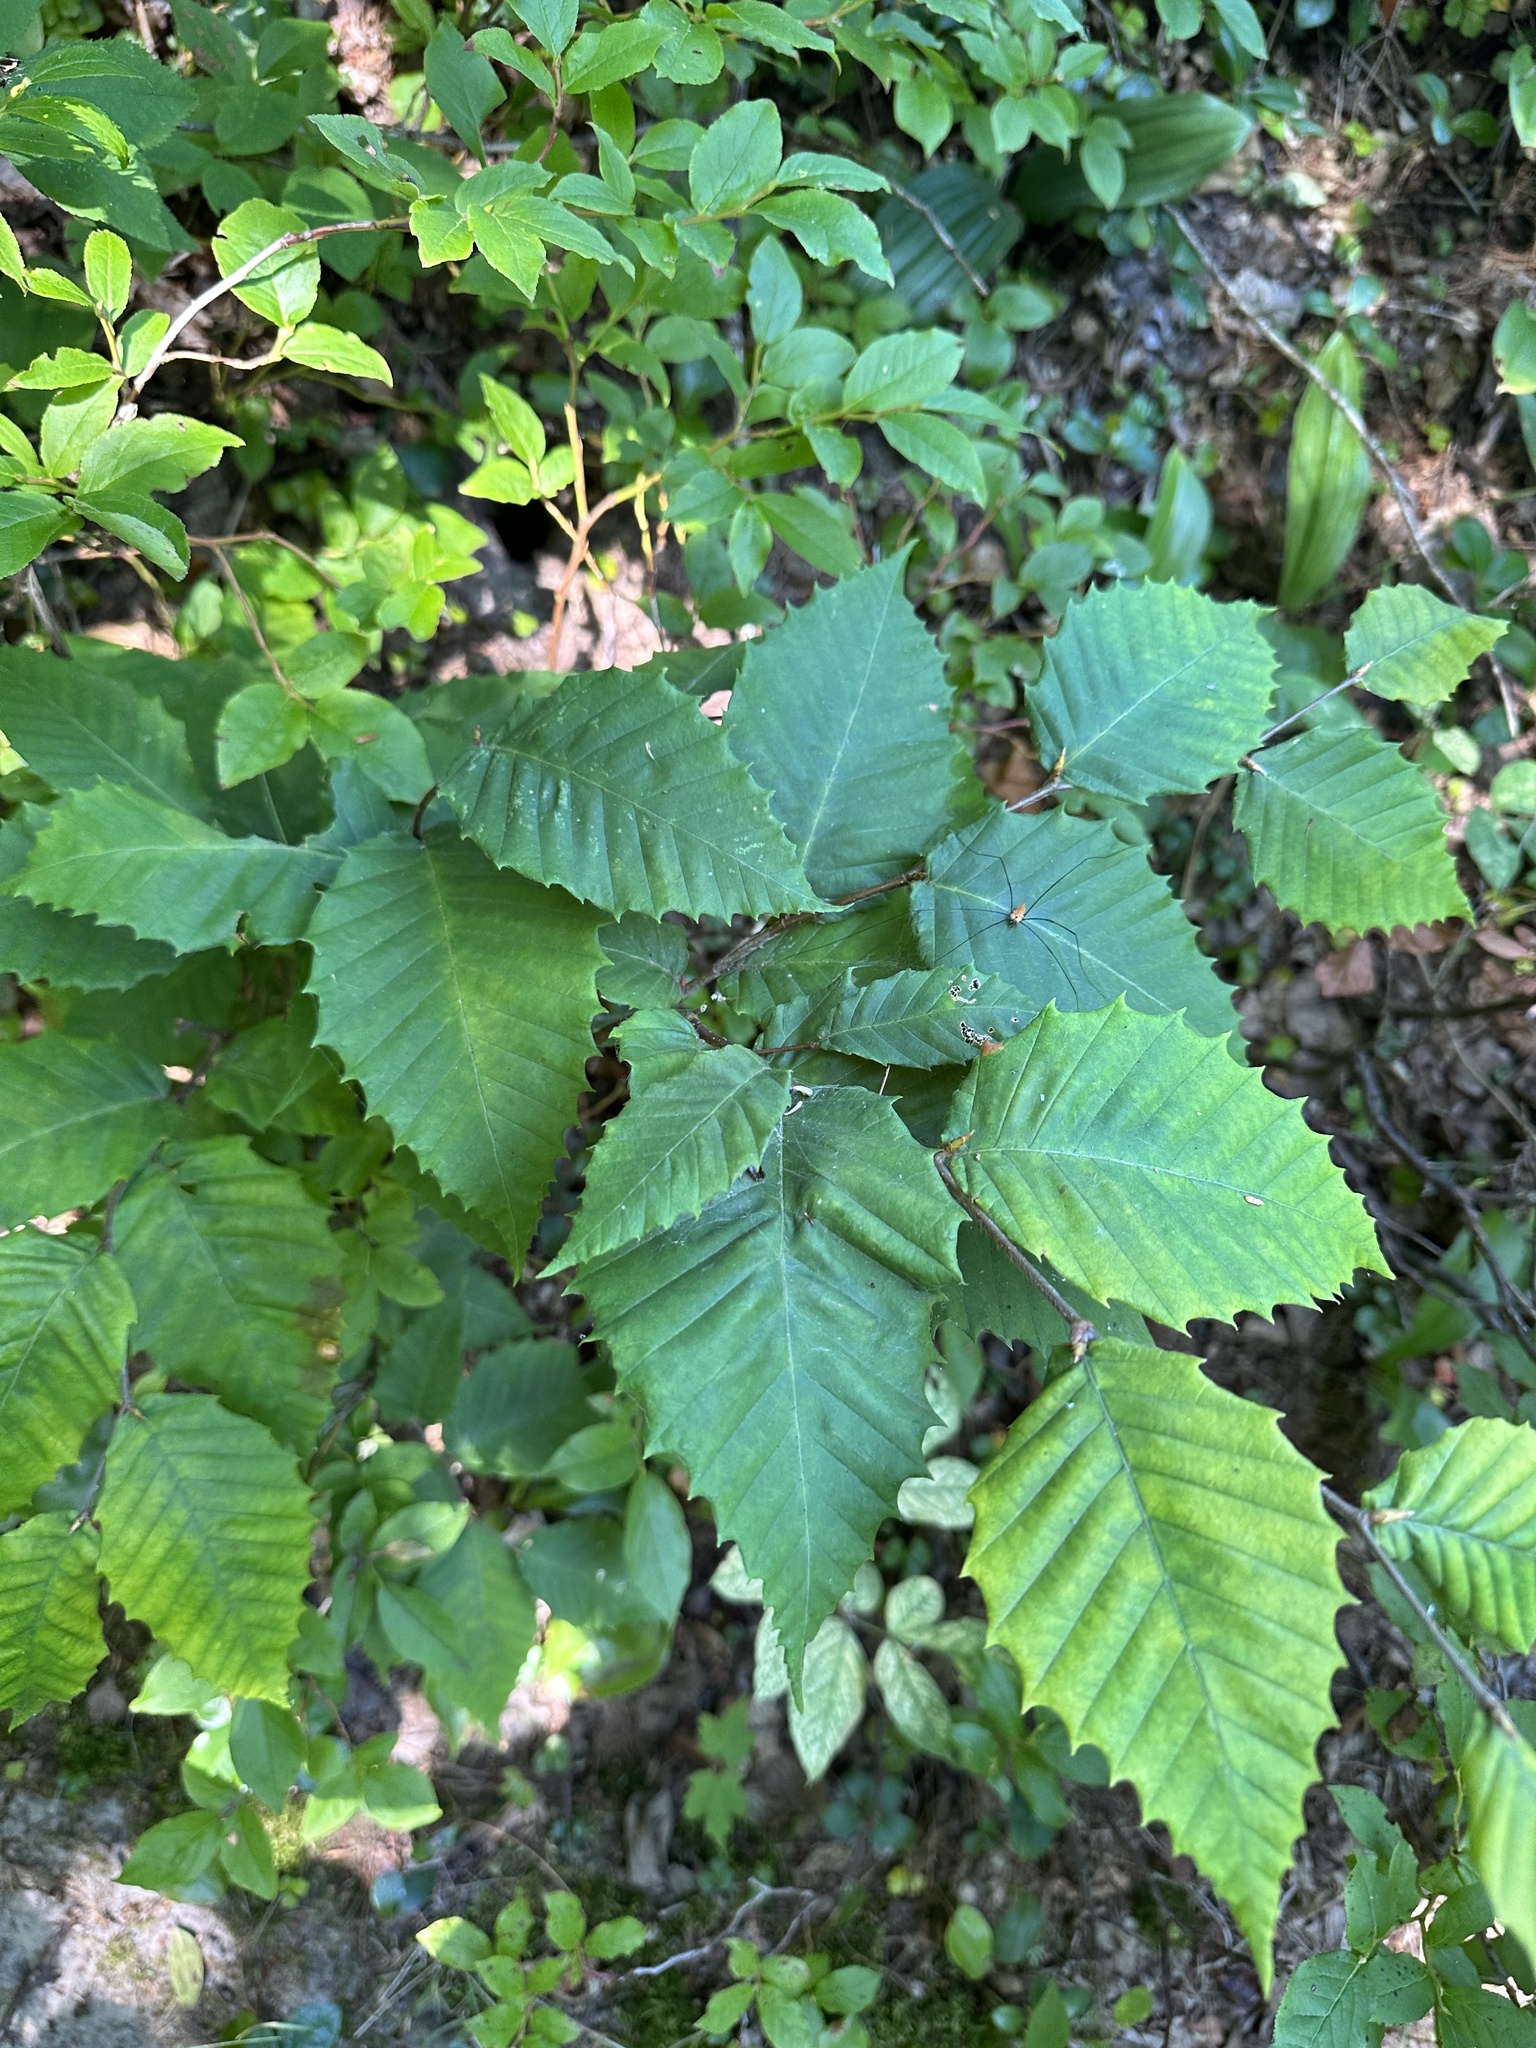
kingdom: Plantae
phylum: Tracheophyta
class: Magnoliopsida
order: Fagales
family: Fagaceae
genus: Fagus
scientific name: Fagus grandifolia
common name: American beech
